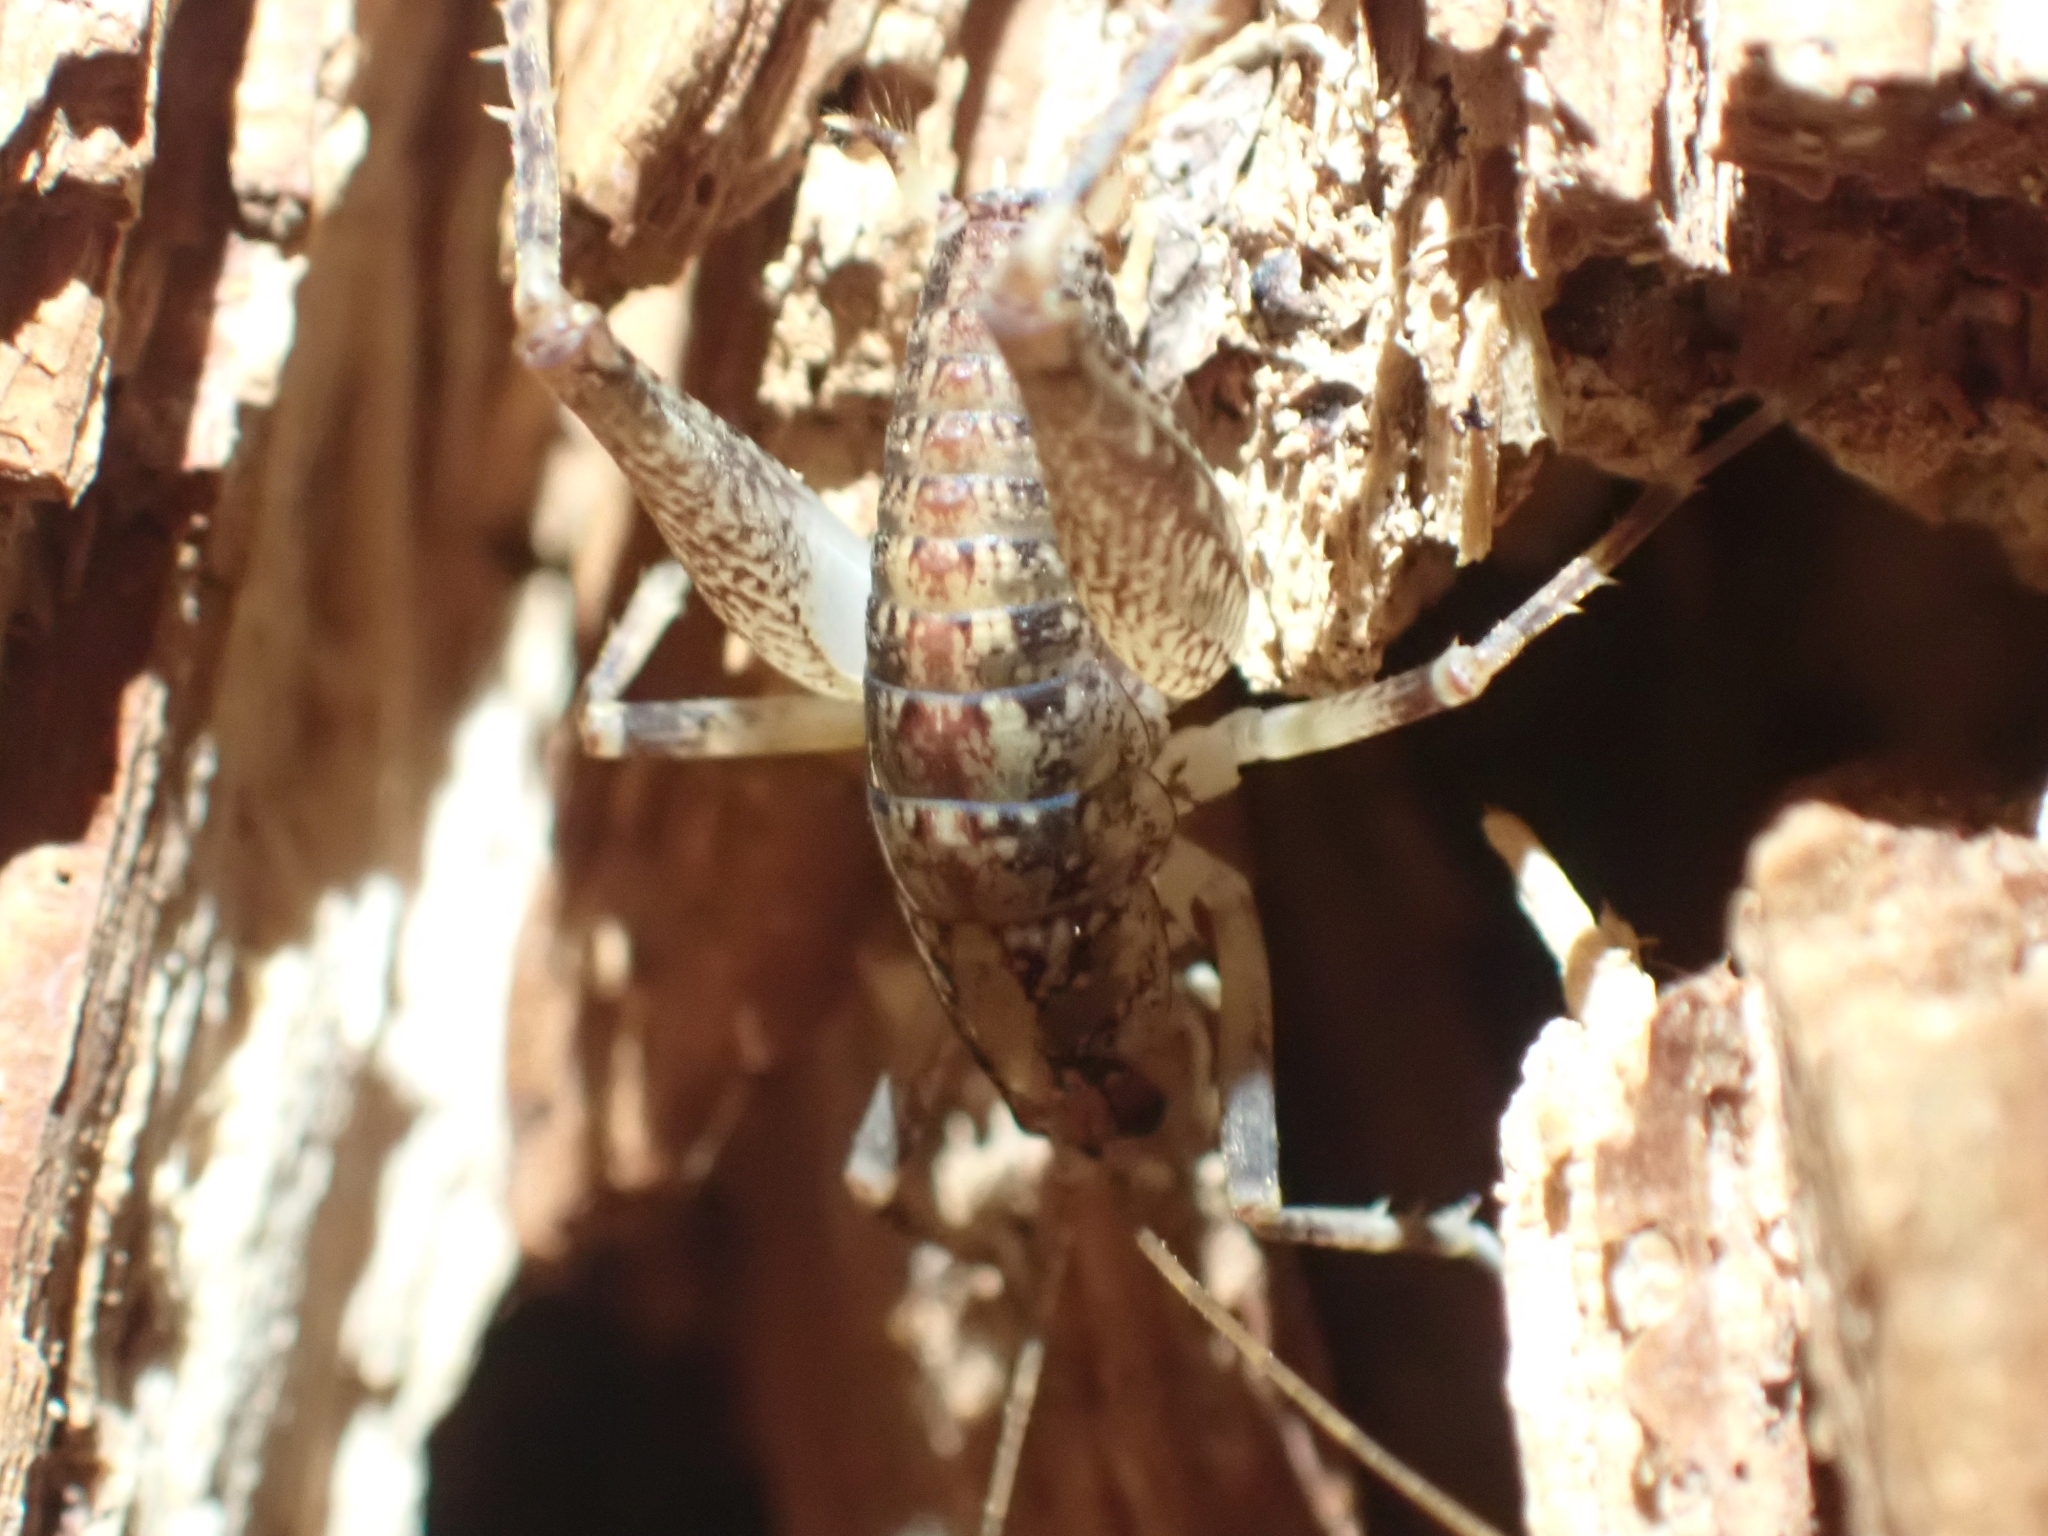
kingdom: Animalia
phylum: Arthropoda
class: Insecta
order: Orthoptera
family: Rhaphidophoridae
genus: Pristoceuthophilus
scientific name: Pristoceuthophilus celatus
